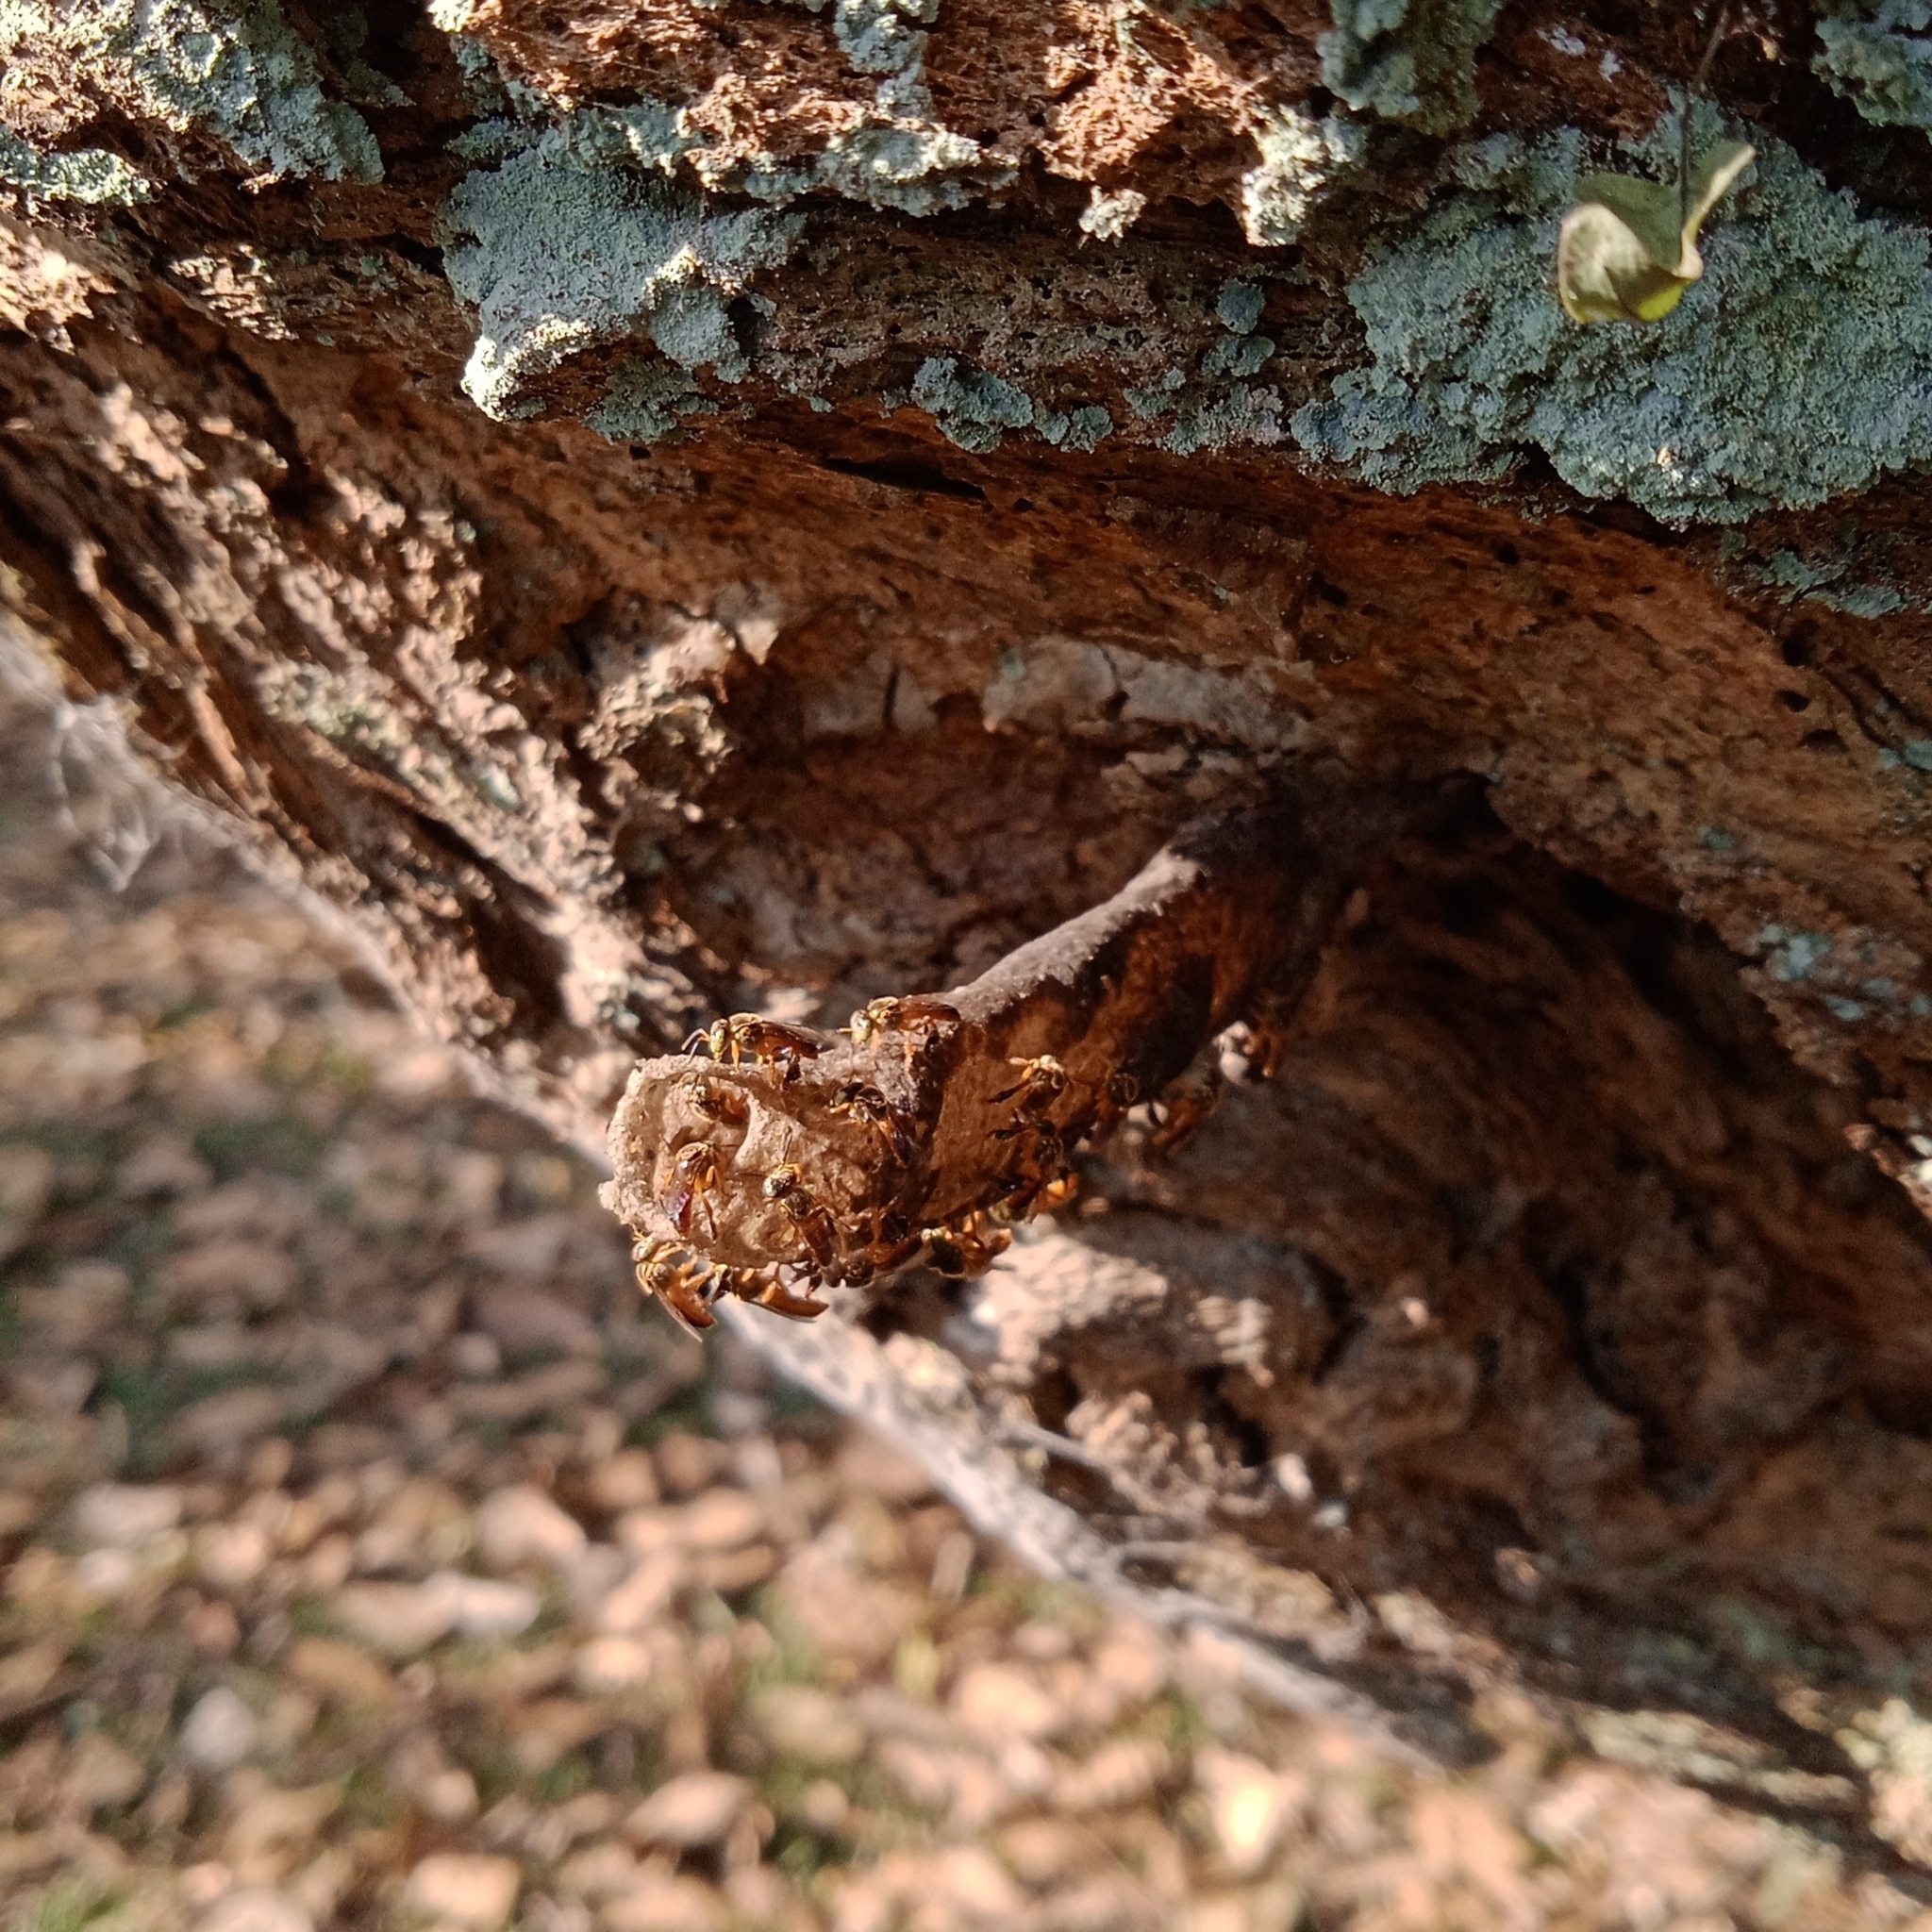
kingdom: Animalia
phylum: Arthropoda
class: Insecta
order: Hymenoptera
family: Apidae
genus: Tetragonisca
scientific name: Tetragonisca angustula
